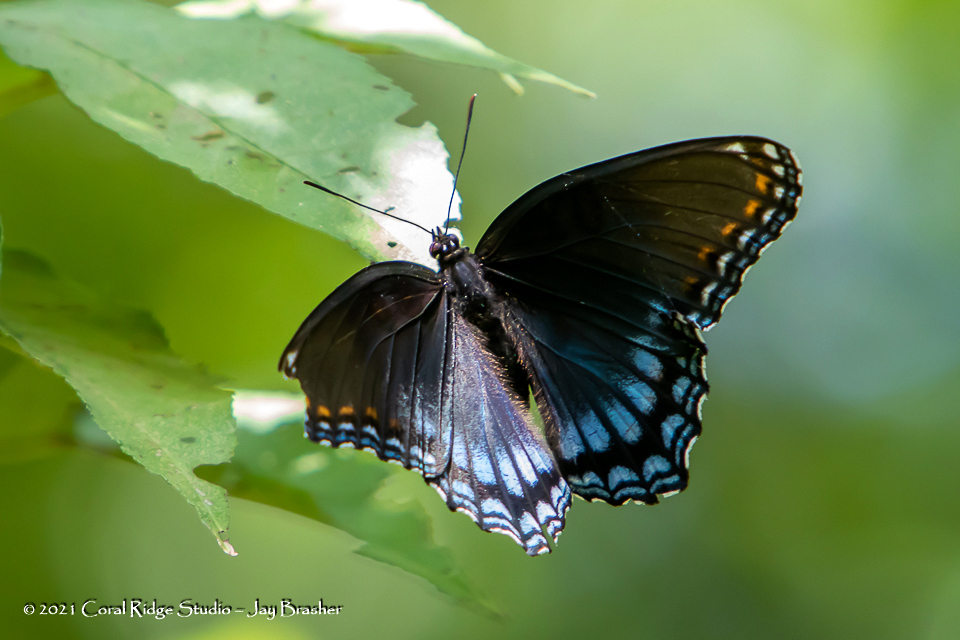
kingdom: Animalia
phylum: Arthropoda
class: Insecta
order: Lepidoptera
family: Nymphalidae
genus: Limenitis
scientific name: Limenitis astyanax
